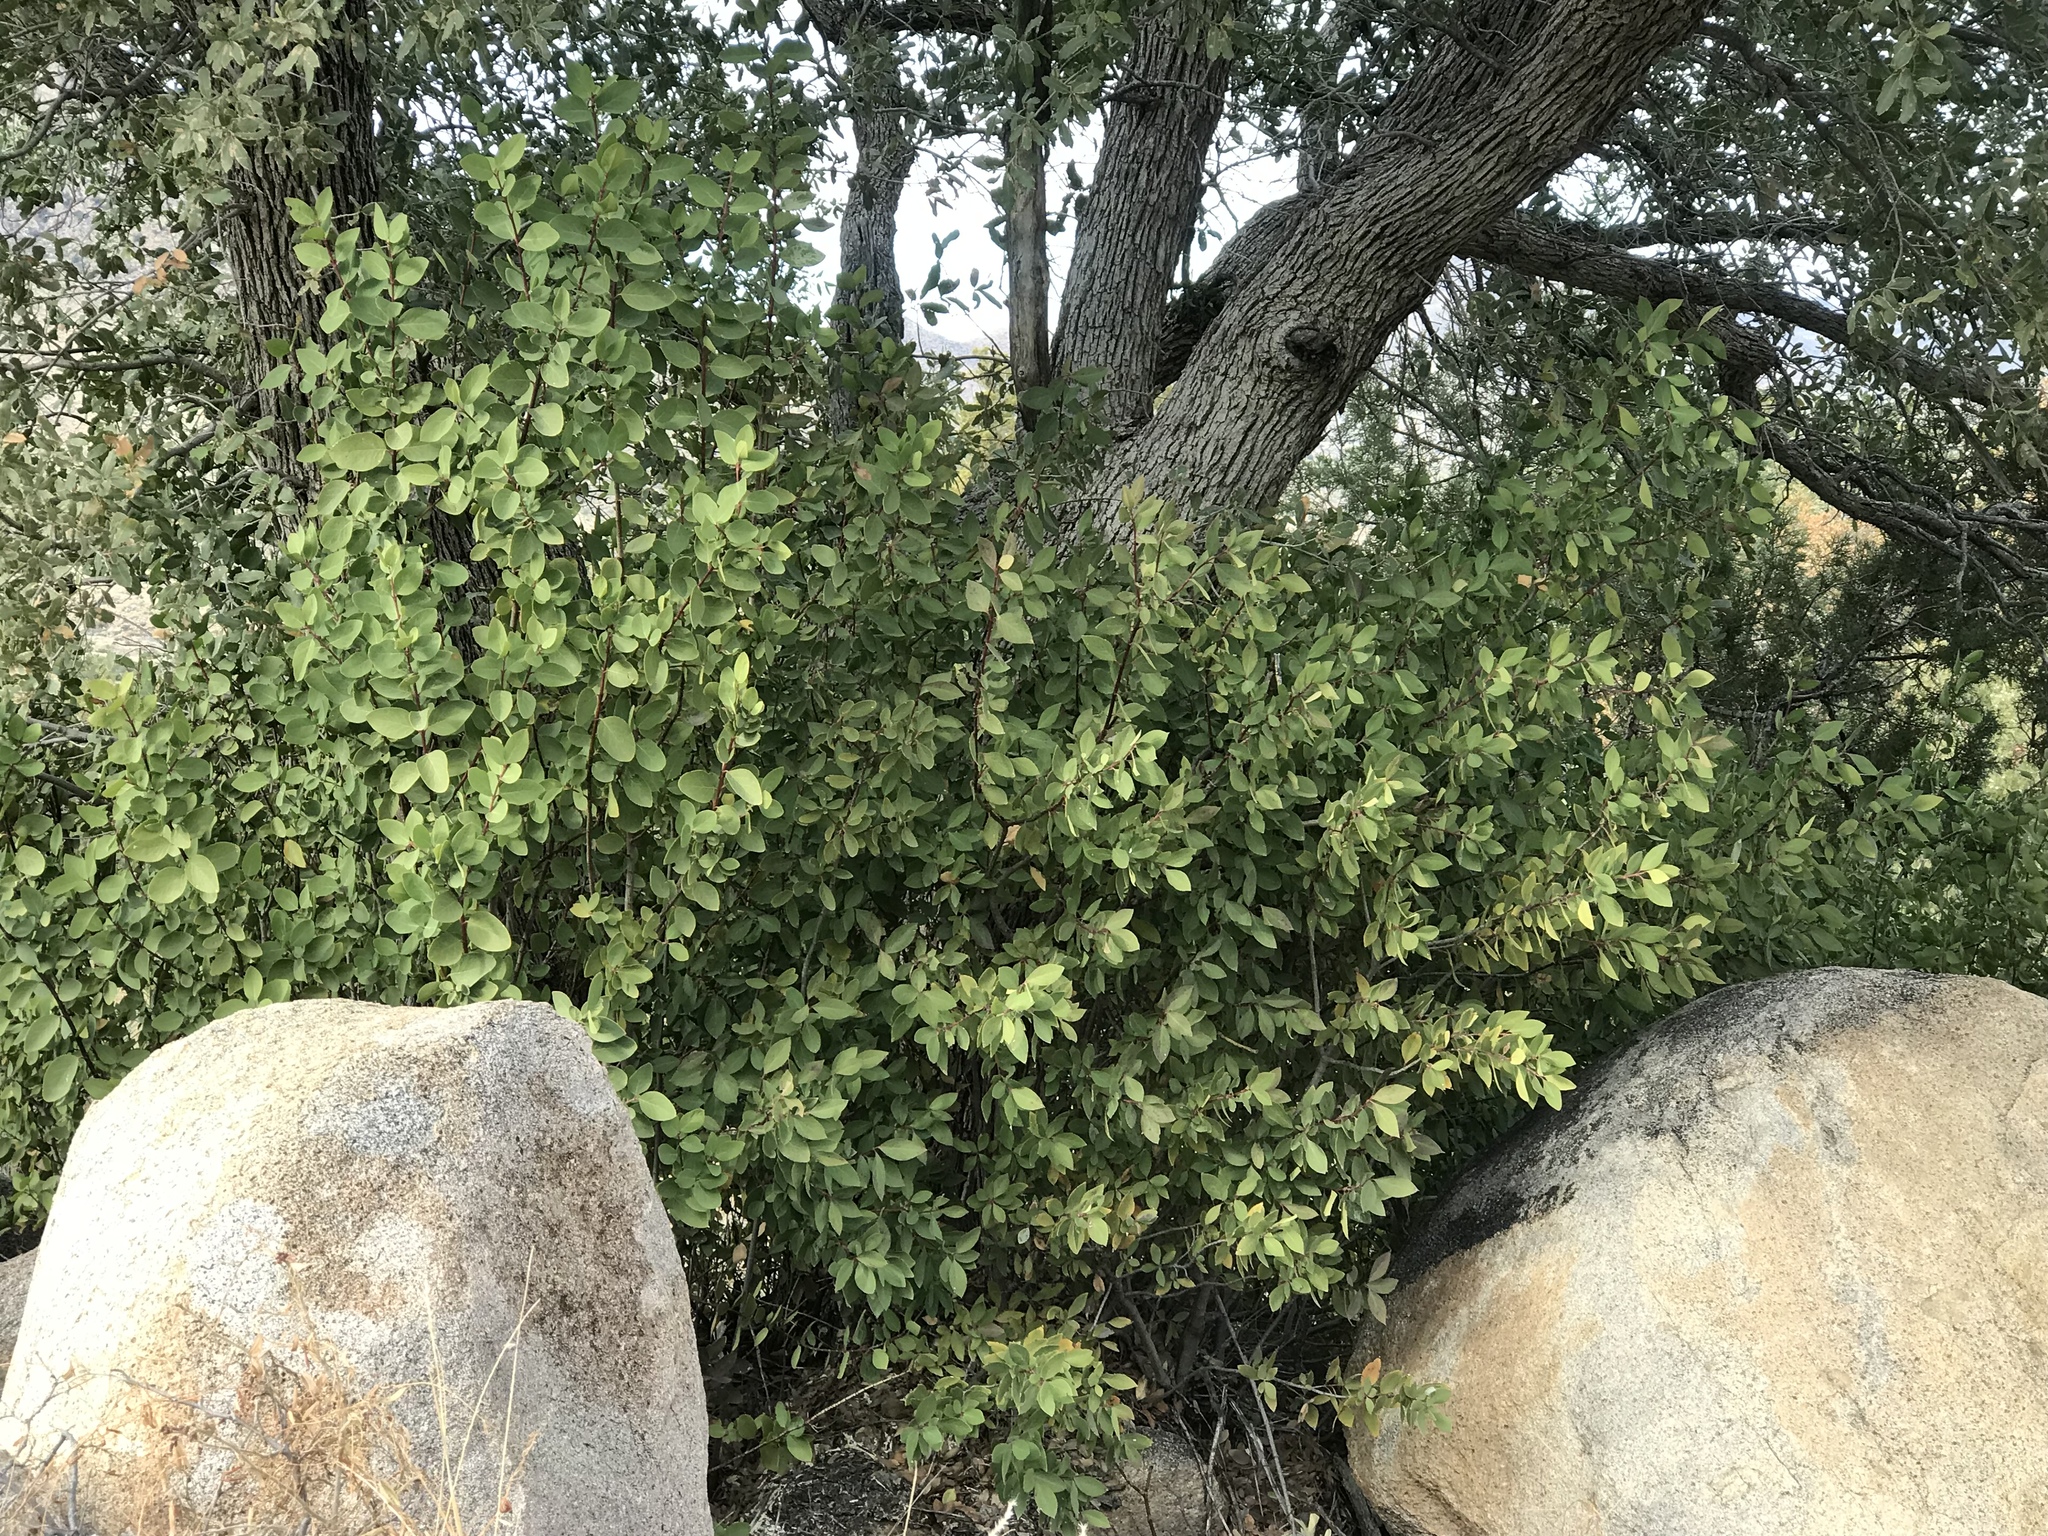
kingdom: Plantae
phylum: Tracheophyta
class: Magnoliopsida
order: Garryales
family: Garryaceae
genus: Garrya
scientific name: Garrya wrightii
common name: Wright's silktassel
